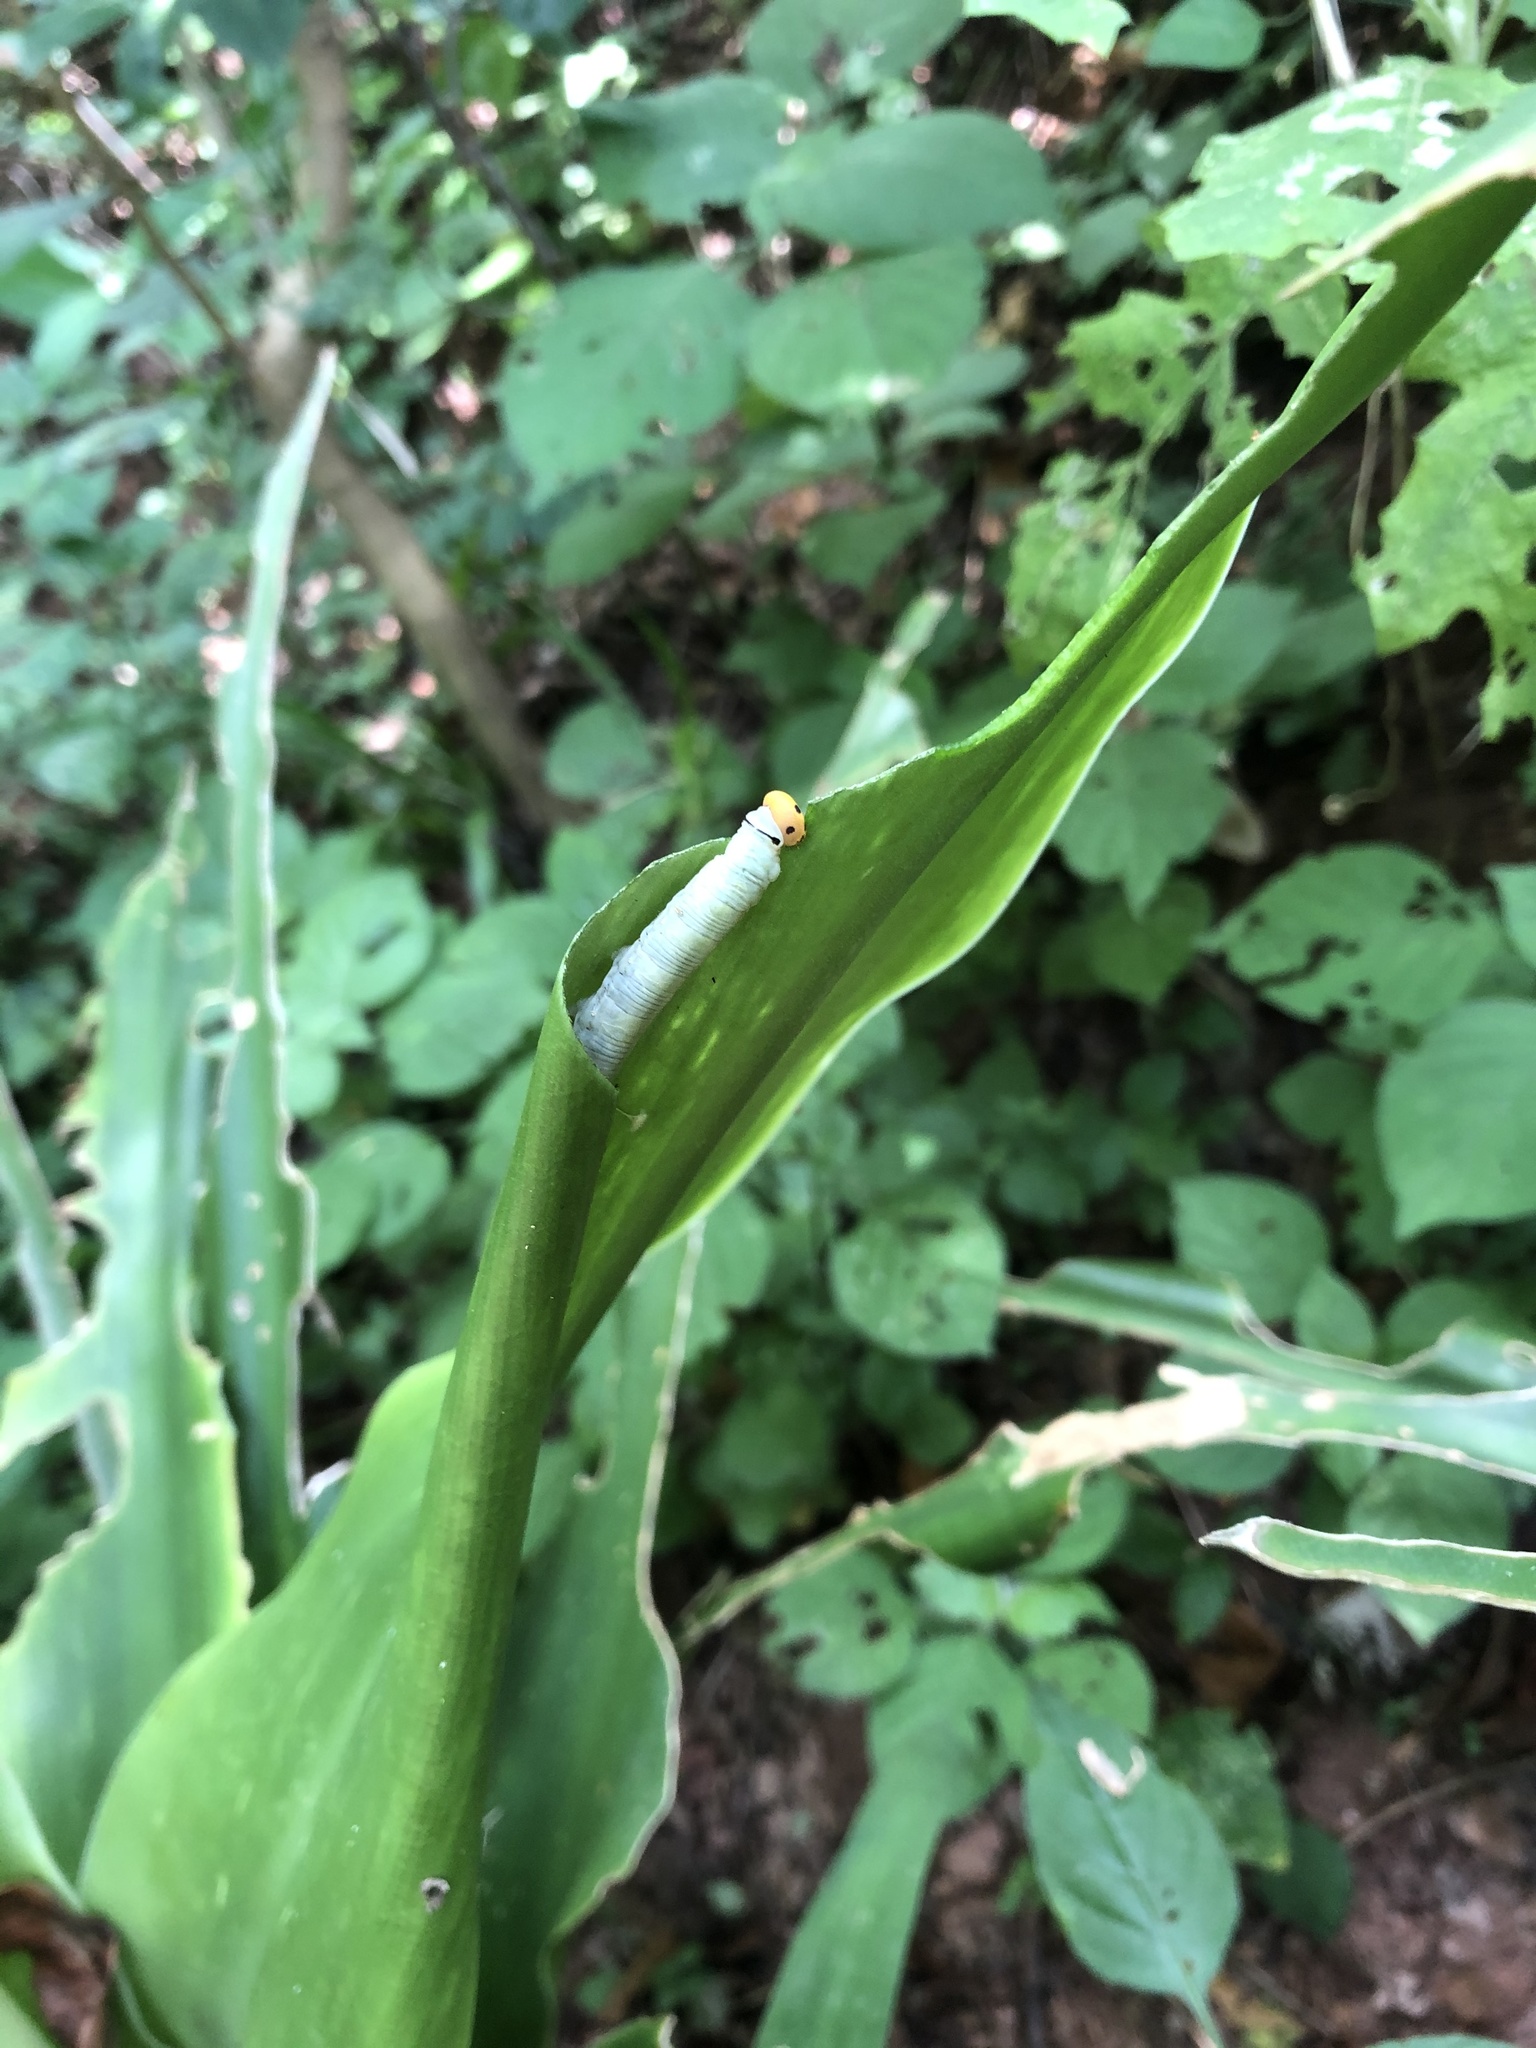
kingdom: Animalia
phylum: Arthropoda
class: Insecta
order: Lepidoptera
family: Hesperiidae
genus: Artitropa
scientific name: Artitropa erinnys
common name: Bush nightfighter
